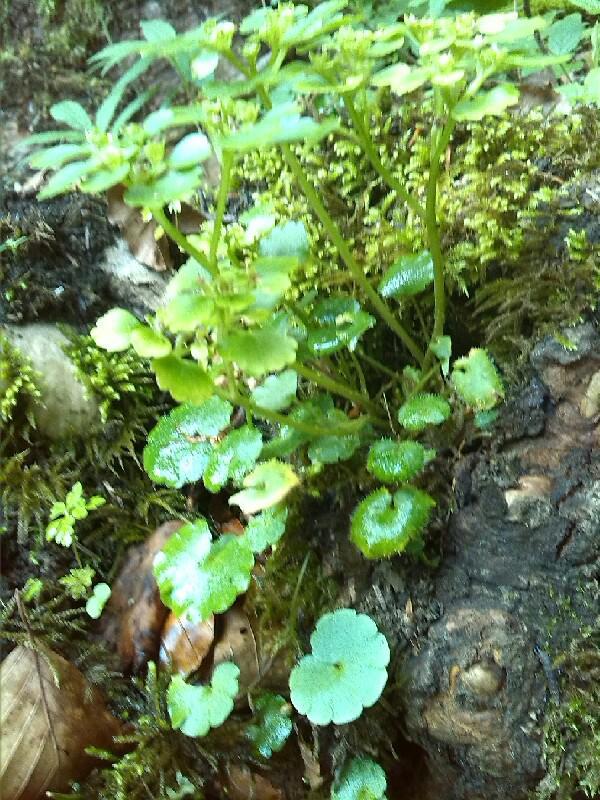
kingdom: Plantae
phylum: Tracheophyta
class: Magnoliopsida
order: Saxifragales
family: Saxifragaceae
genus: Chrysosplenium
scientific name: Chrysosplenium alternifolium
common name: Alternate-leaved golden-saxifrage
